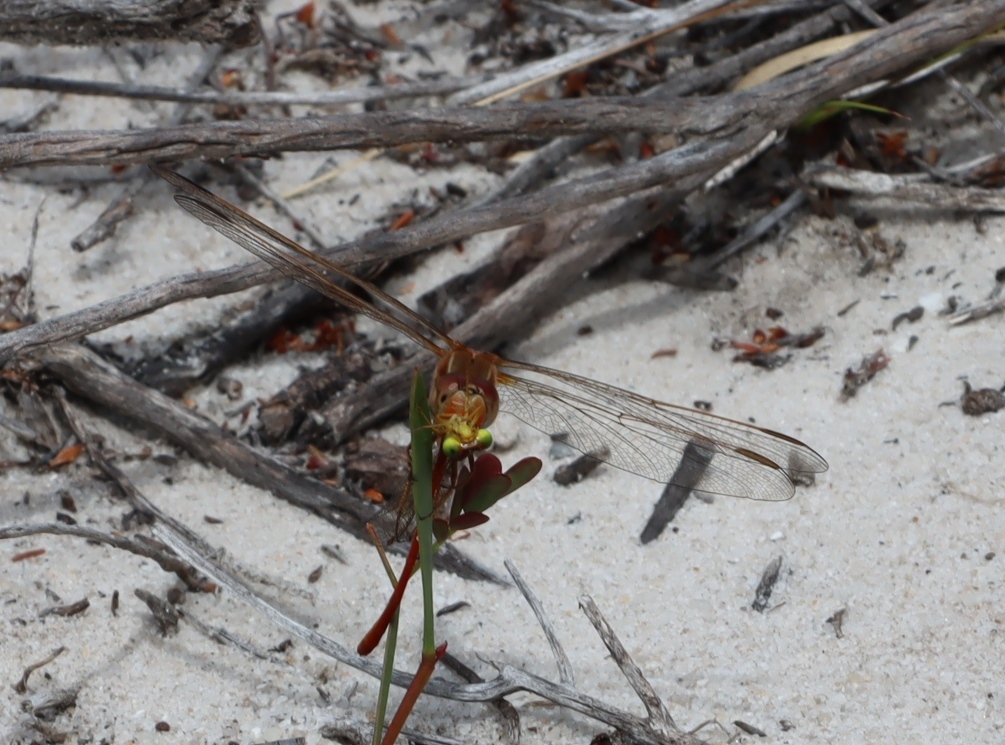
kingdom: Animalia
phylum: Arthropoda
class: Insecta
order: Odonata
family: Libellulidae
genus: Orthetrum
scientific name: Orthetrum caffrum
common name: Two-striped skimmer
